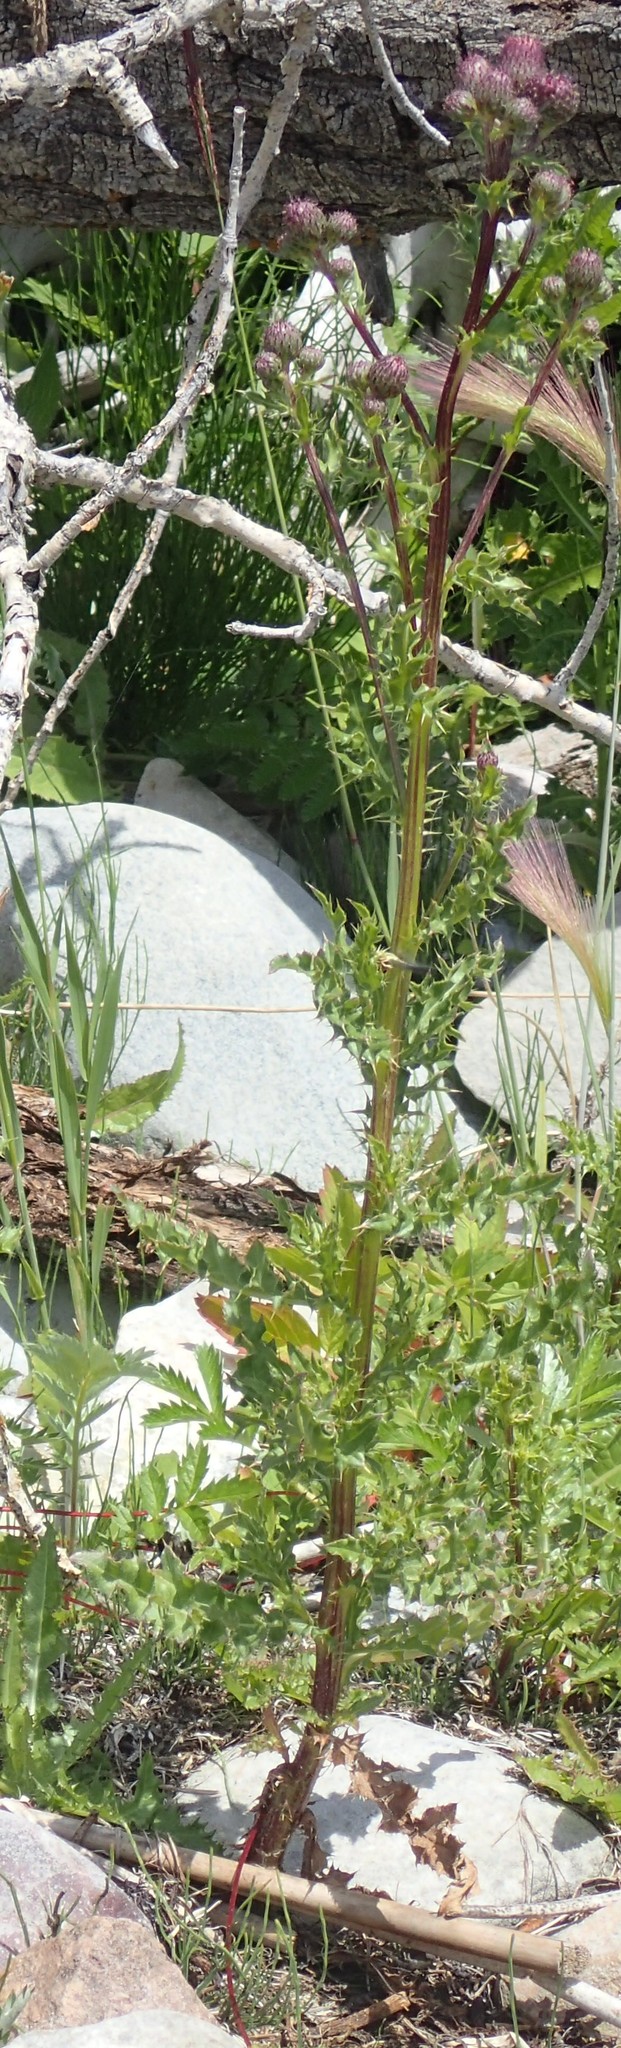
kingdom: Plantae
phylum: Tracheophyta
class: Magnoliopsida
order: Asterales
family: Asteraceae
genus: Cirsium
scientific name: Cirsium arvense
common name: Creeping thistle
